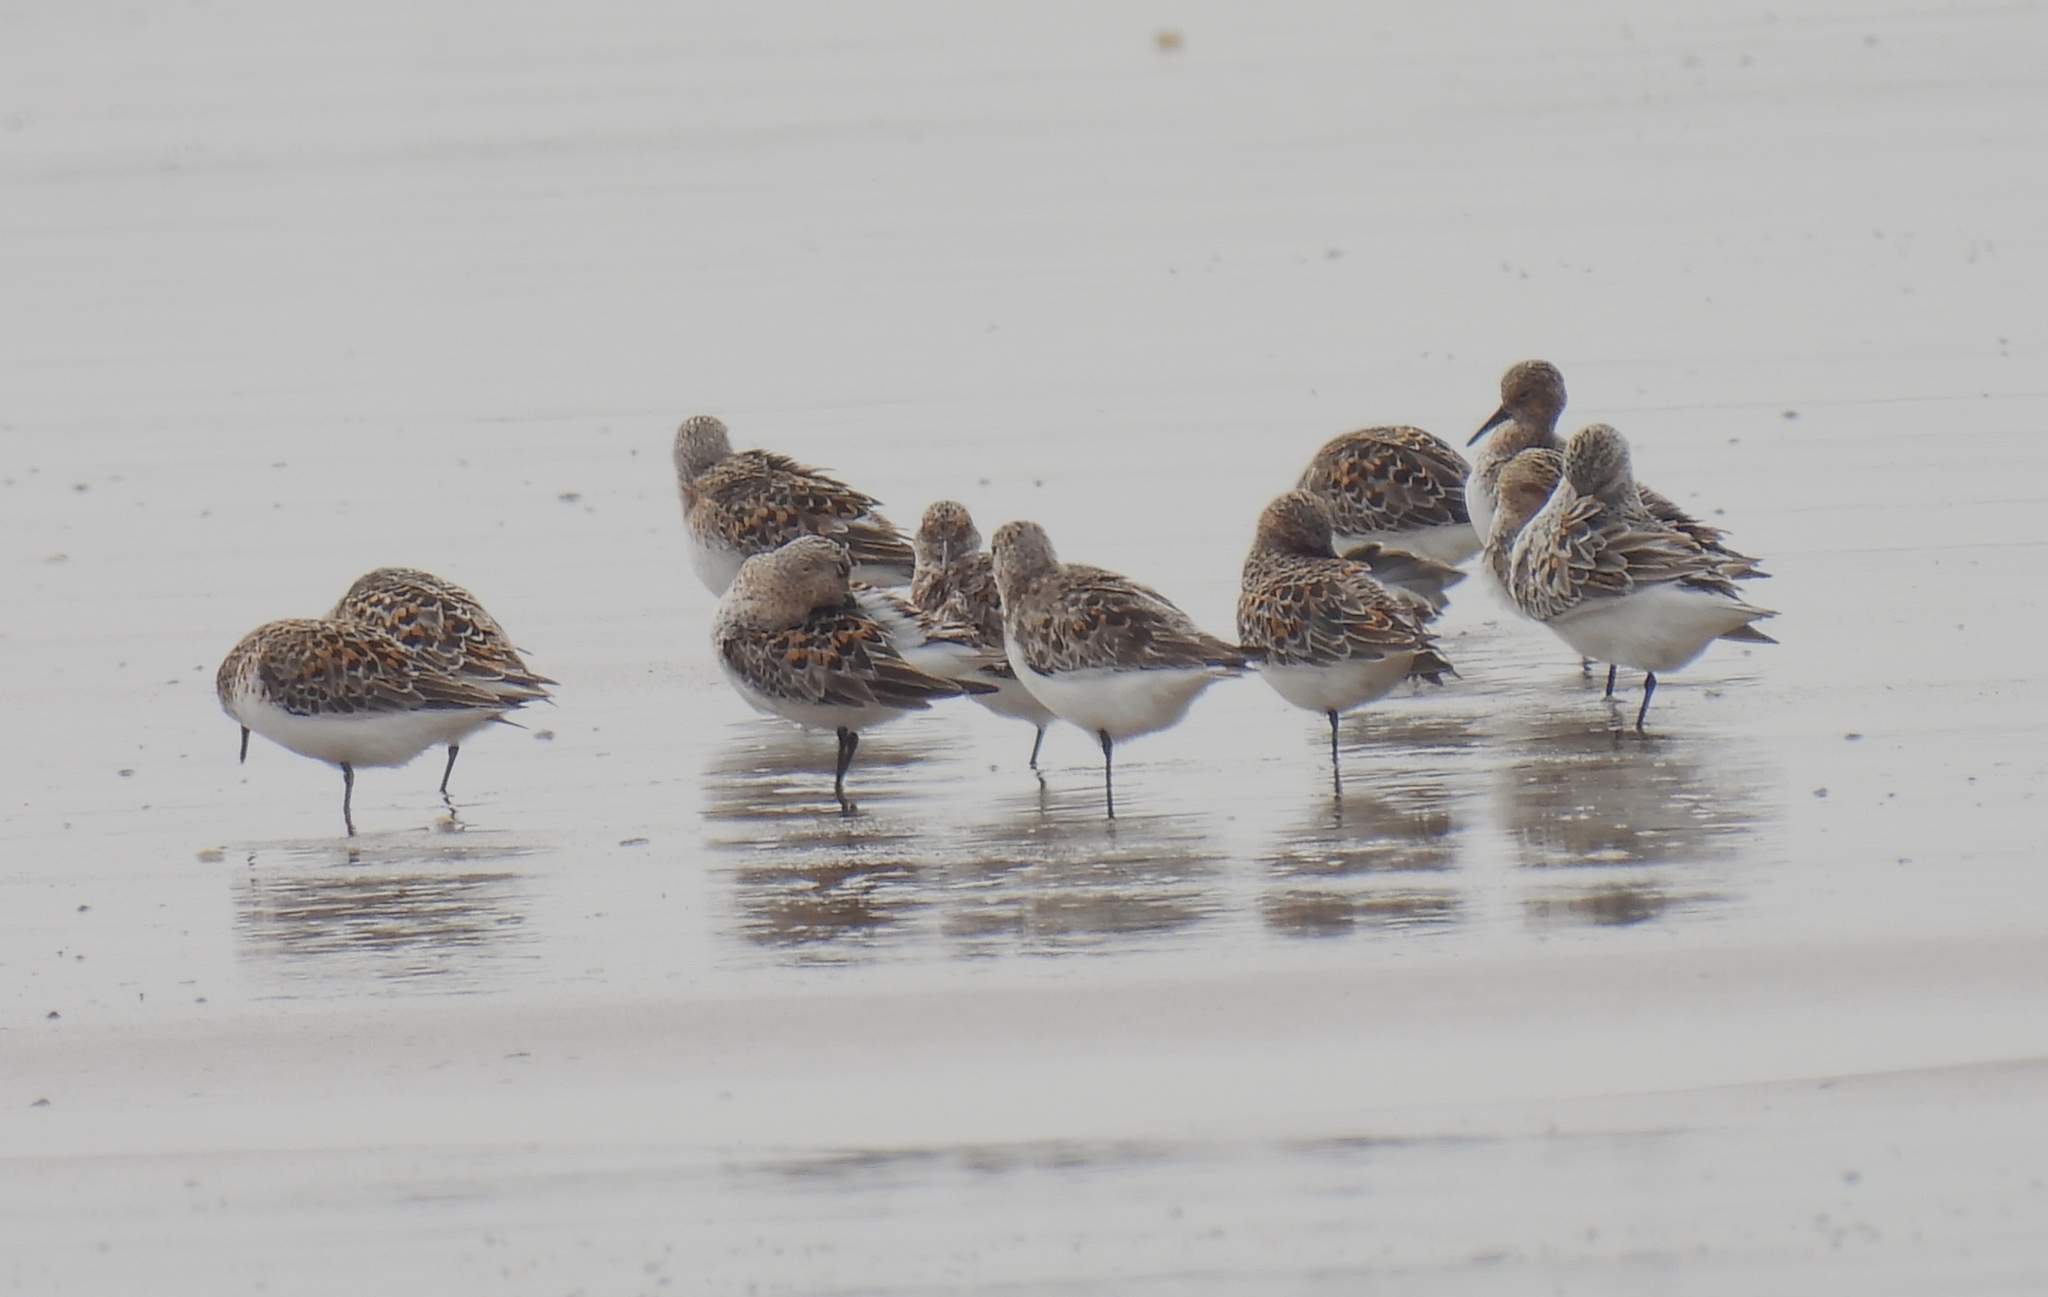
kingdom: Animalia
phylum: Chordata
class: Aves
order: Charadriiformes
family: Scolopacidae
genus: Calidris
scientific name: Calidris alba
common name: Sanderling
